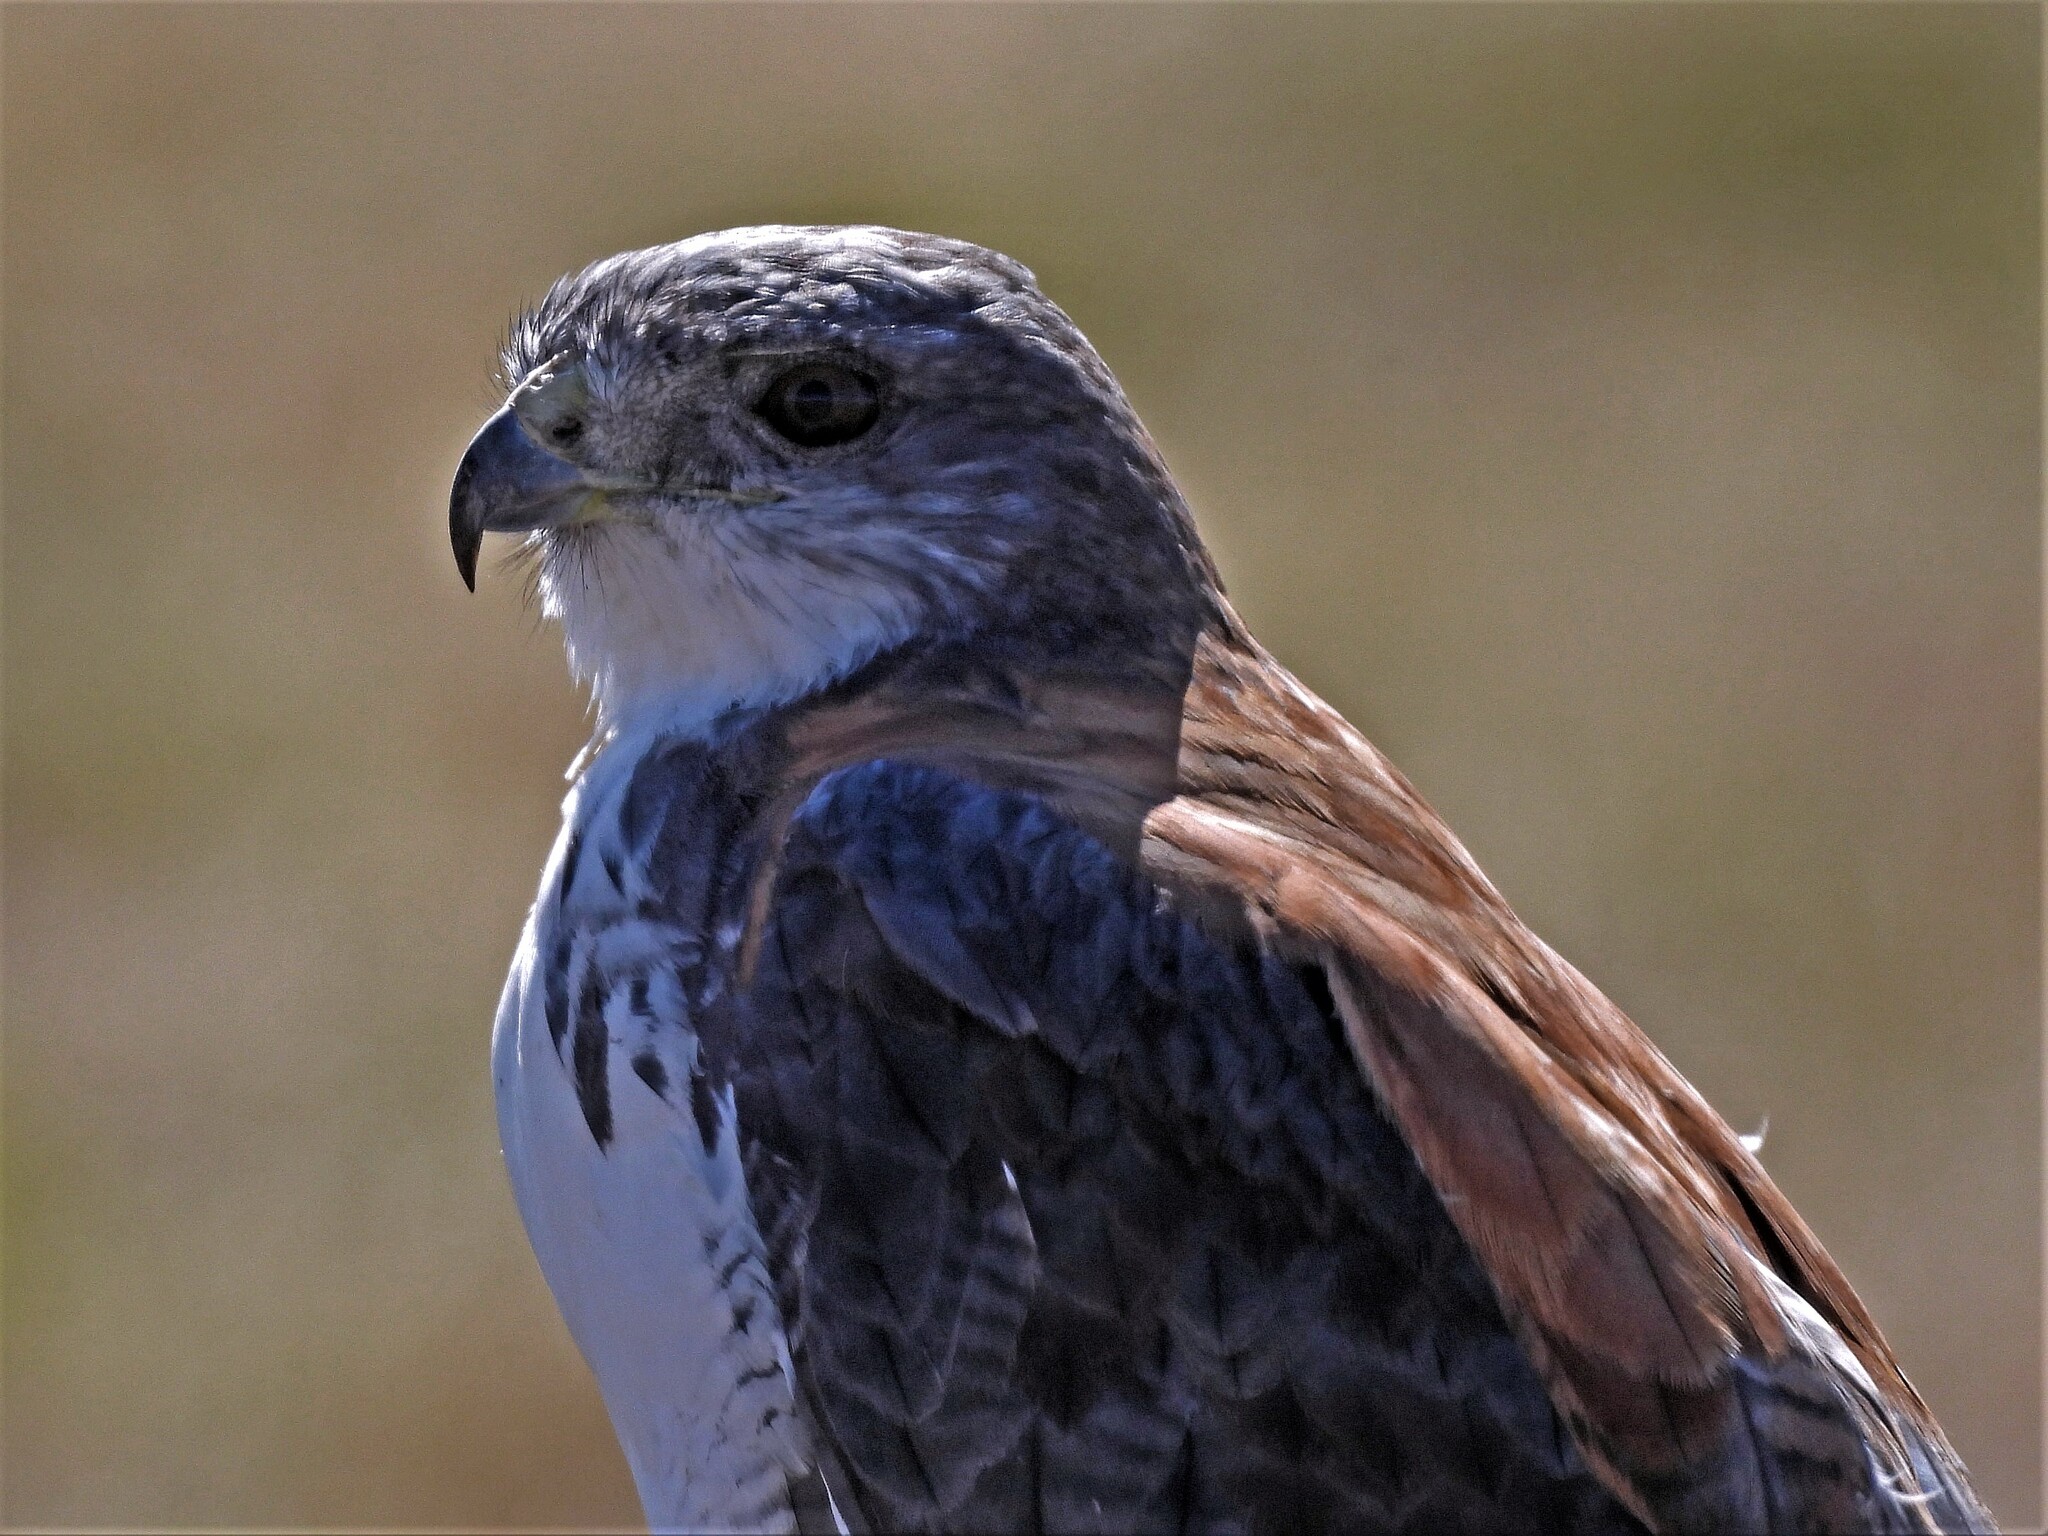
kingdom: Animalia
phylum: Chordata
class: Aves
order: Accipitriformes
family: Accipitridae
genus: Buteo
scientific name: Buteo polyosoma
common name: Variable hawk
